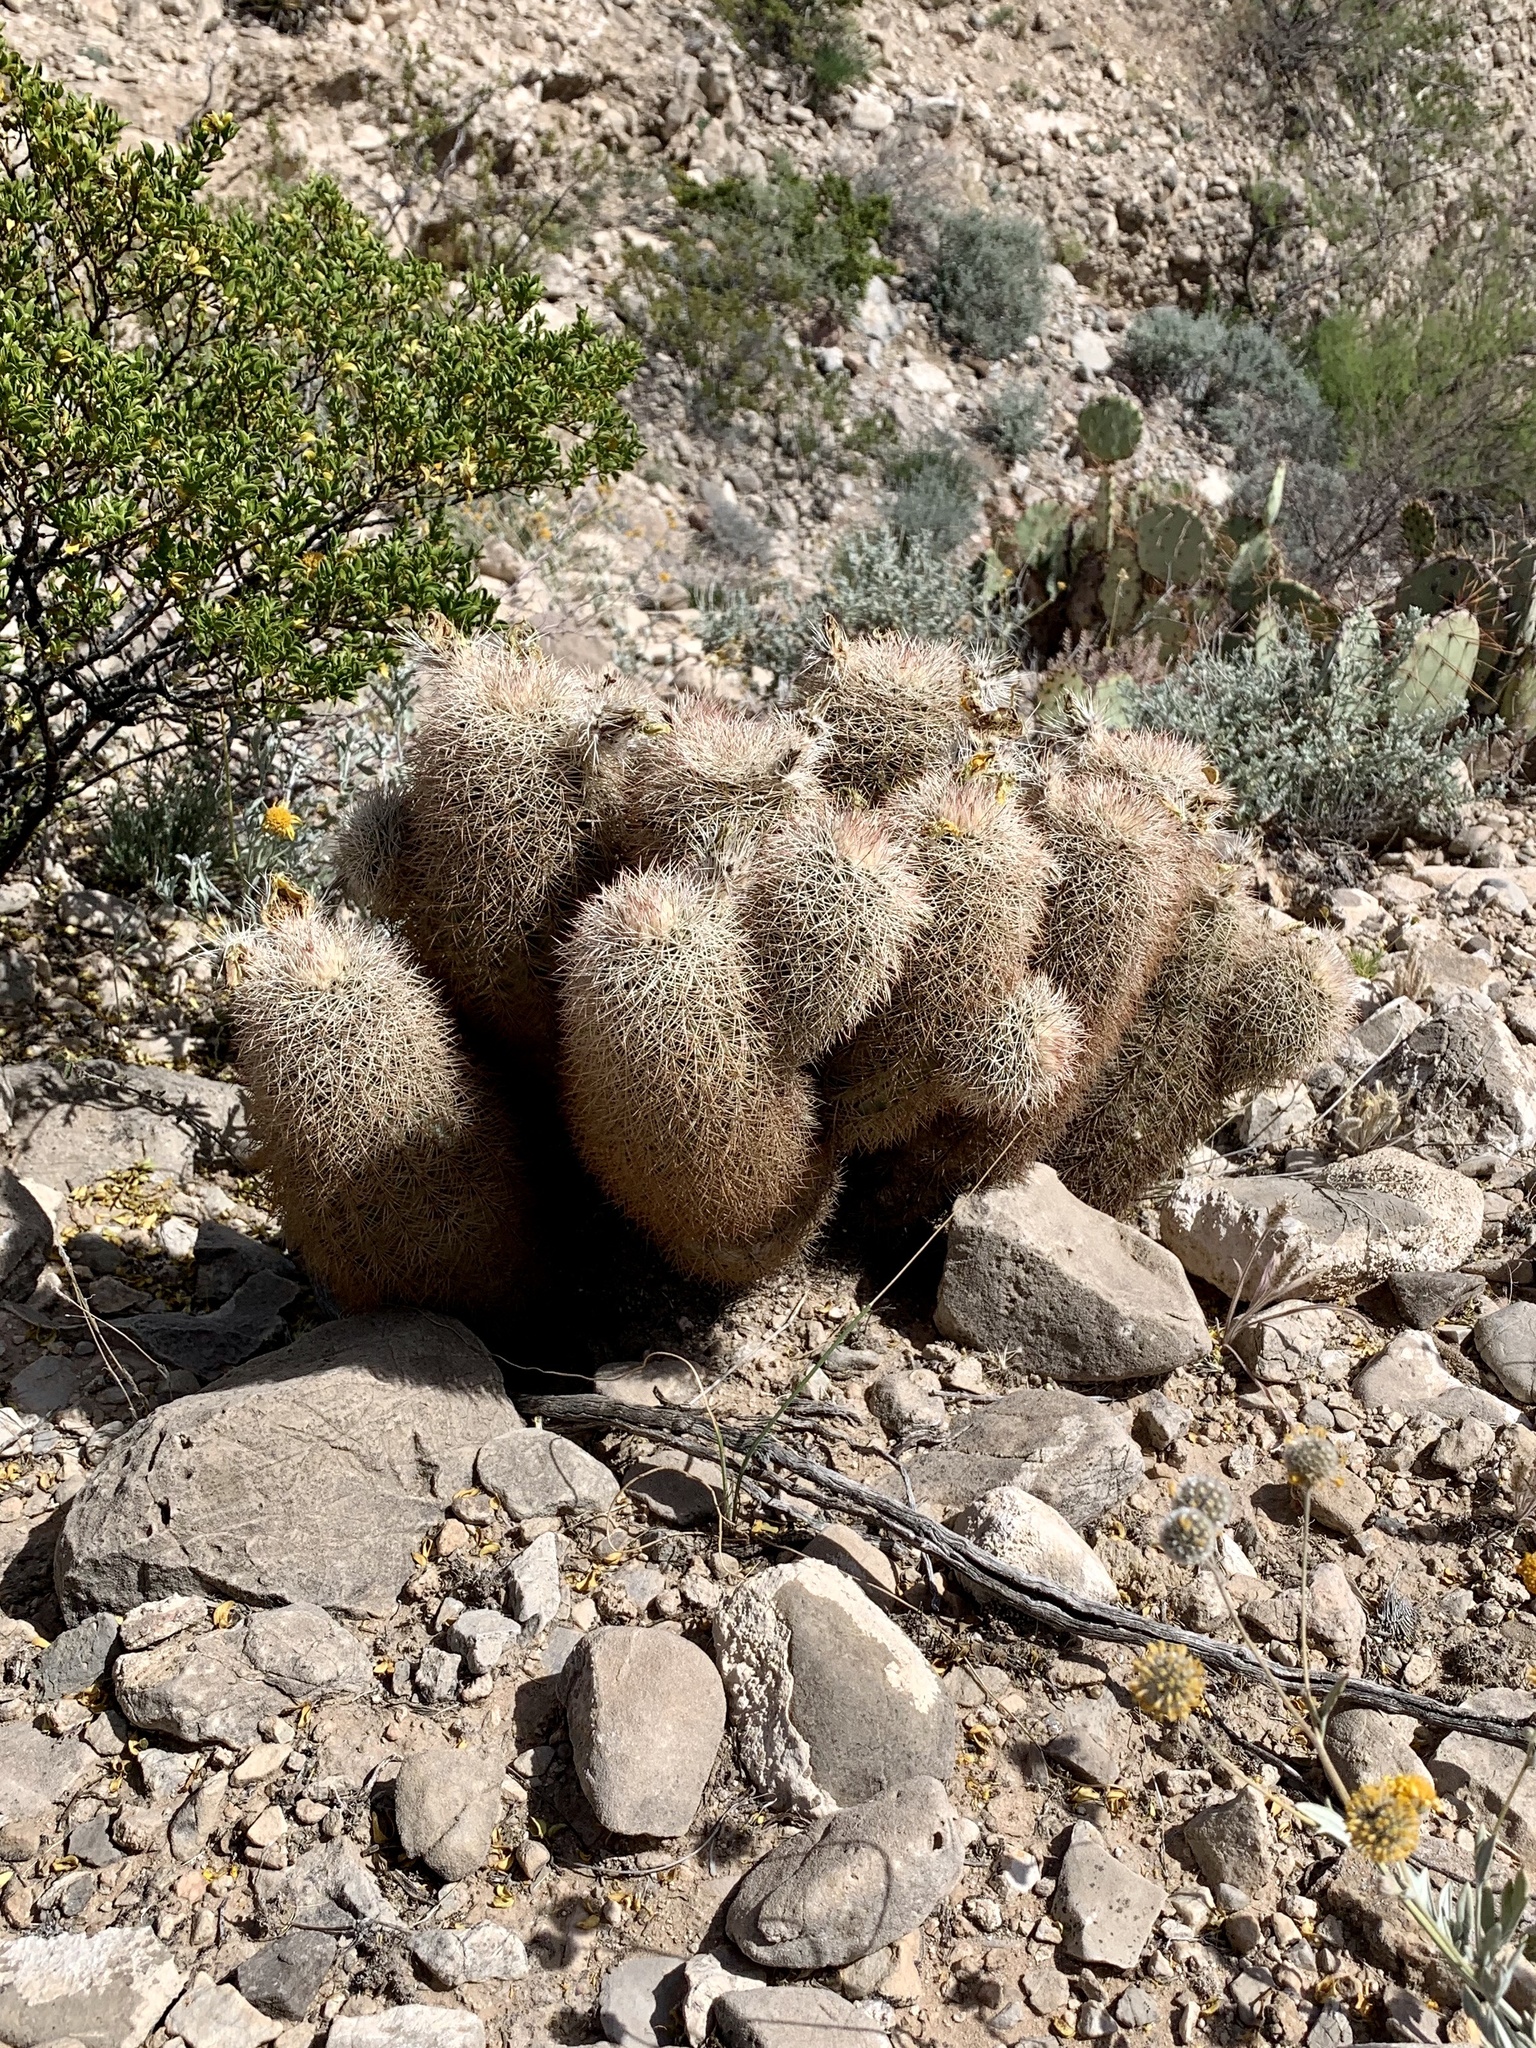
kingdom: Plantae
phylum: Tracheophyta
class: Magnoliopsida
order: Caryophyllales
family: Cactaceae
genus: Echinocereus
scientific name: Echinocereus dasyacanthus
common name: Spiny hedgehog cactus
